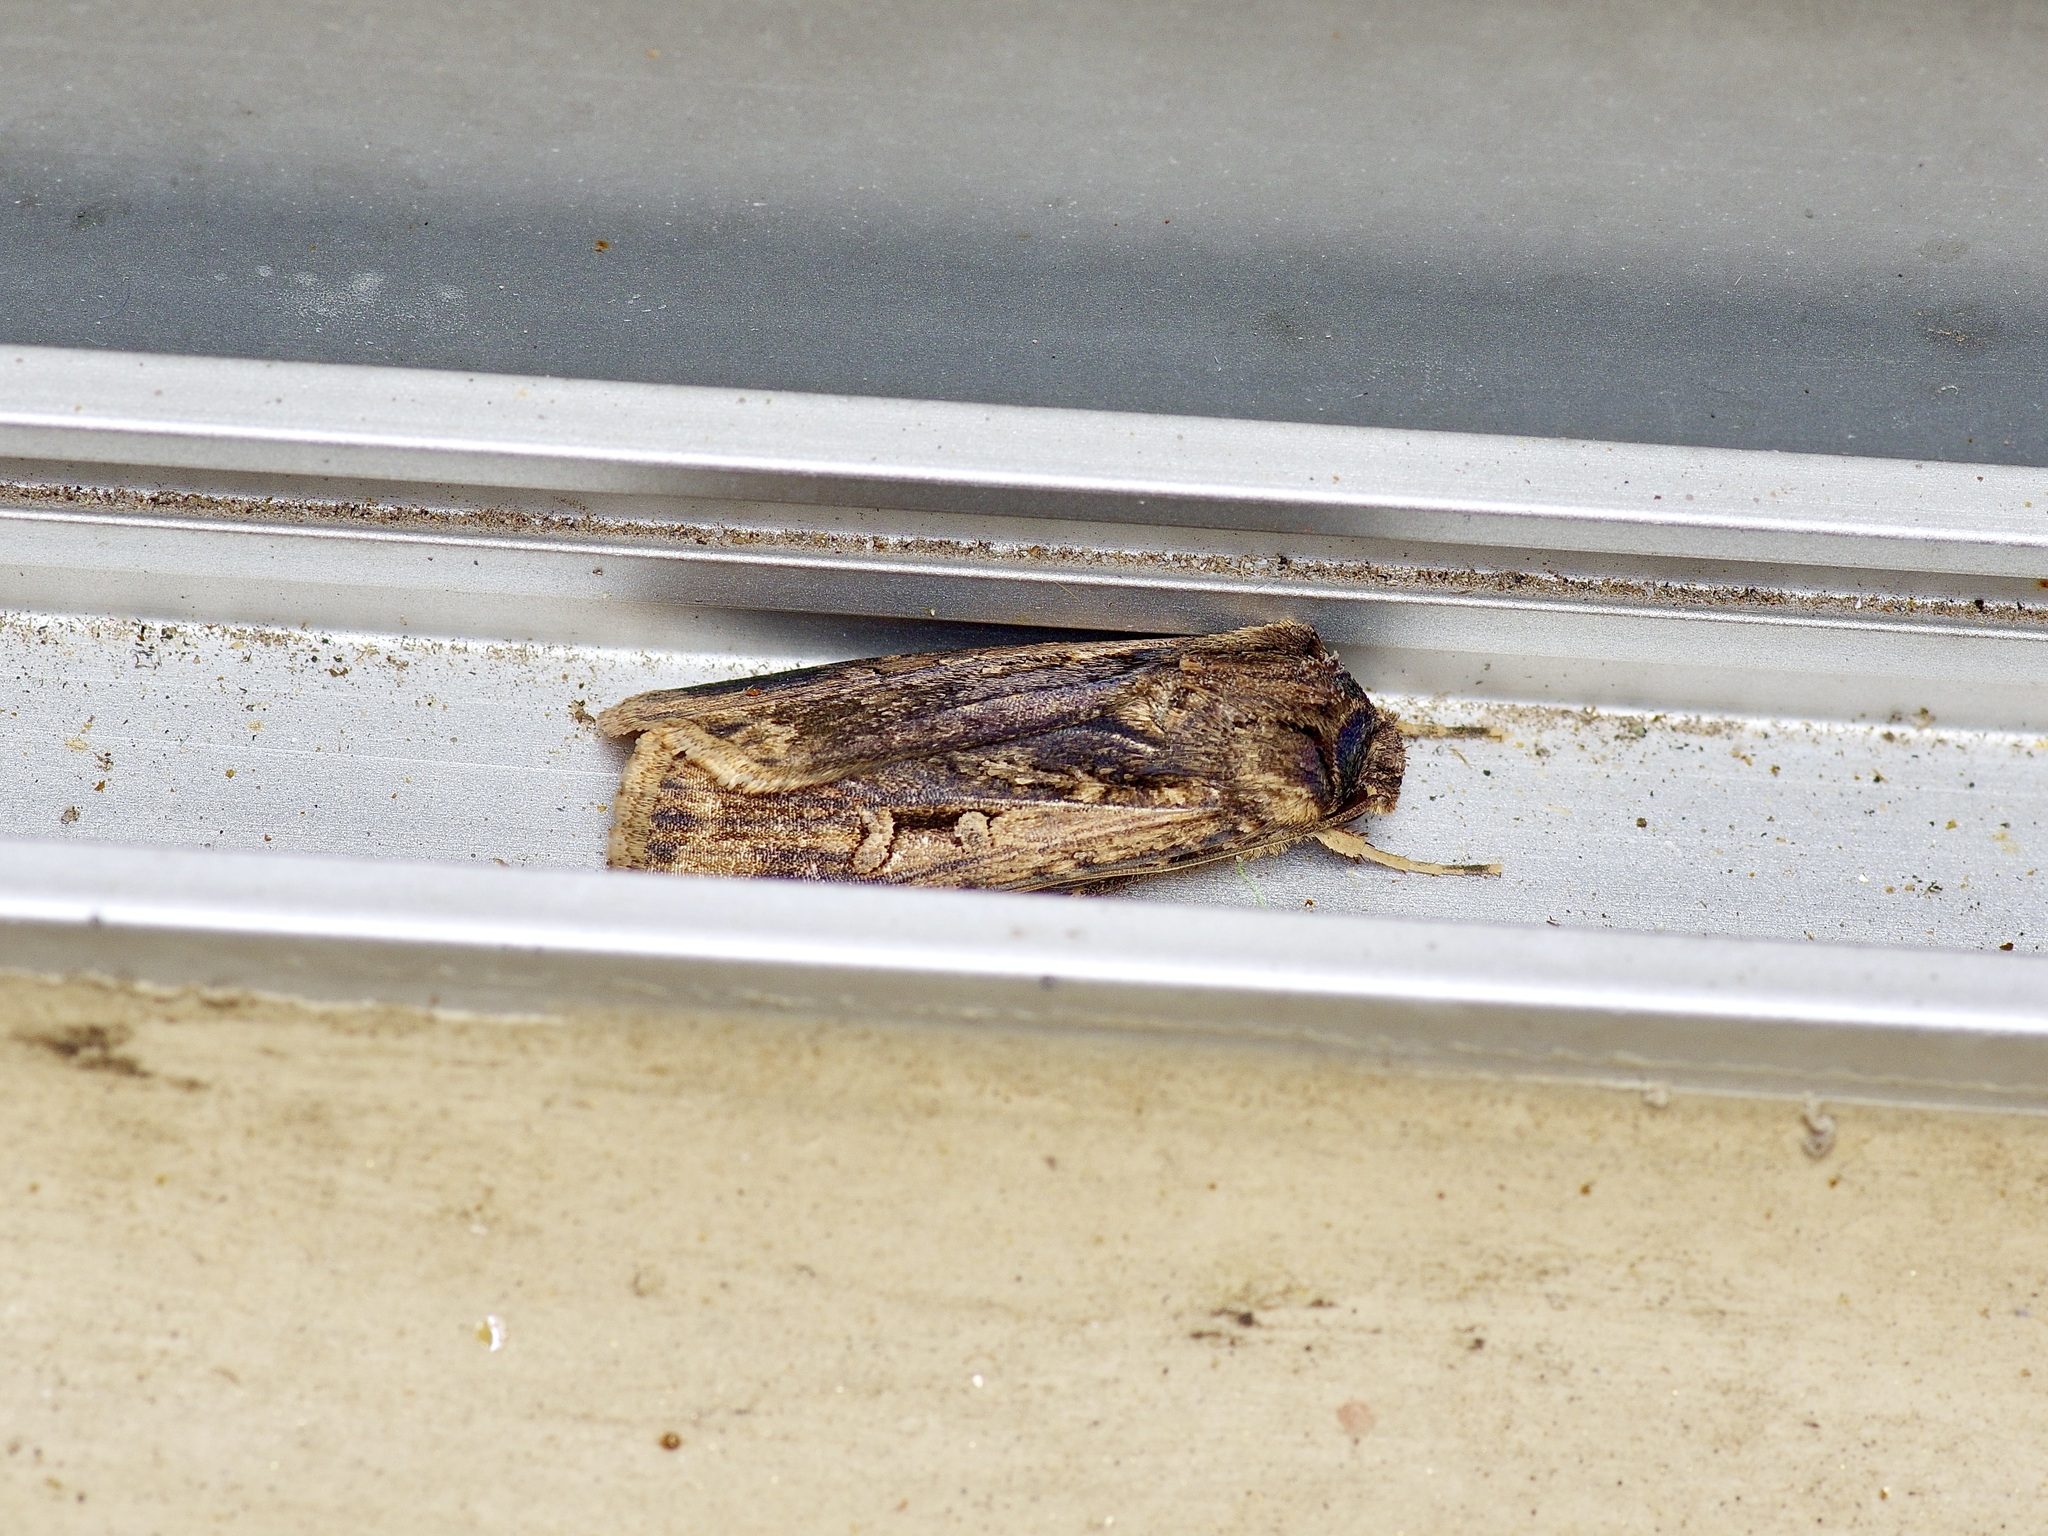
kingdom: Animalia
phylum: Arthropoda
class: Insecta
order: Lepidoptera
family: Noctuidae
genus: Feltia
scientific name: Feltia subterranea
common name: Granulate cutworm
